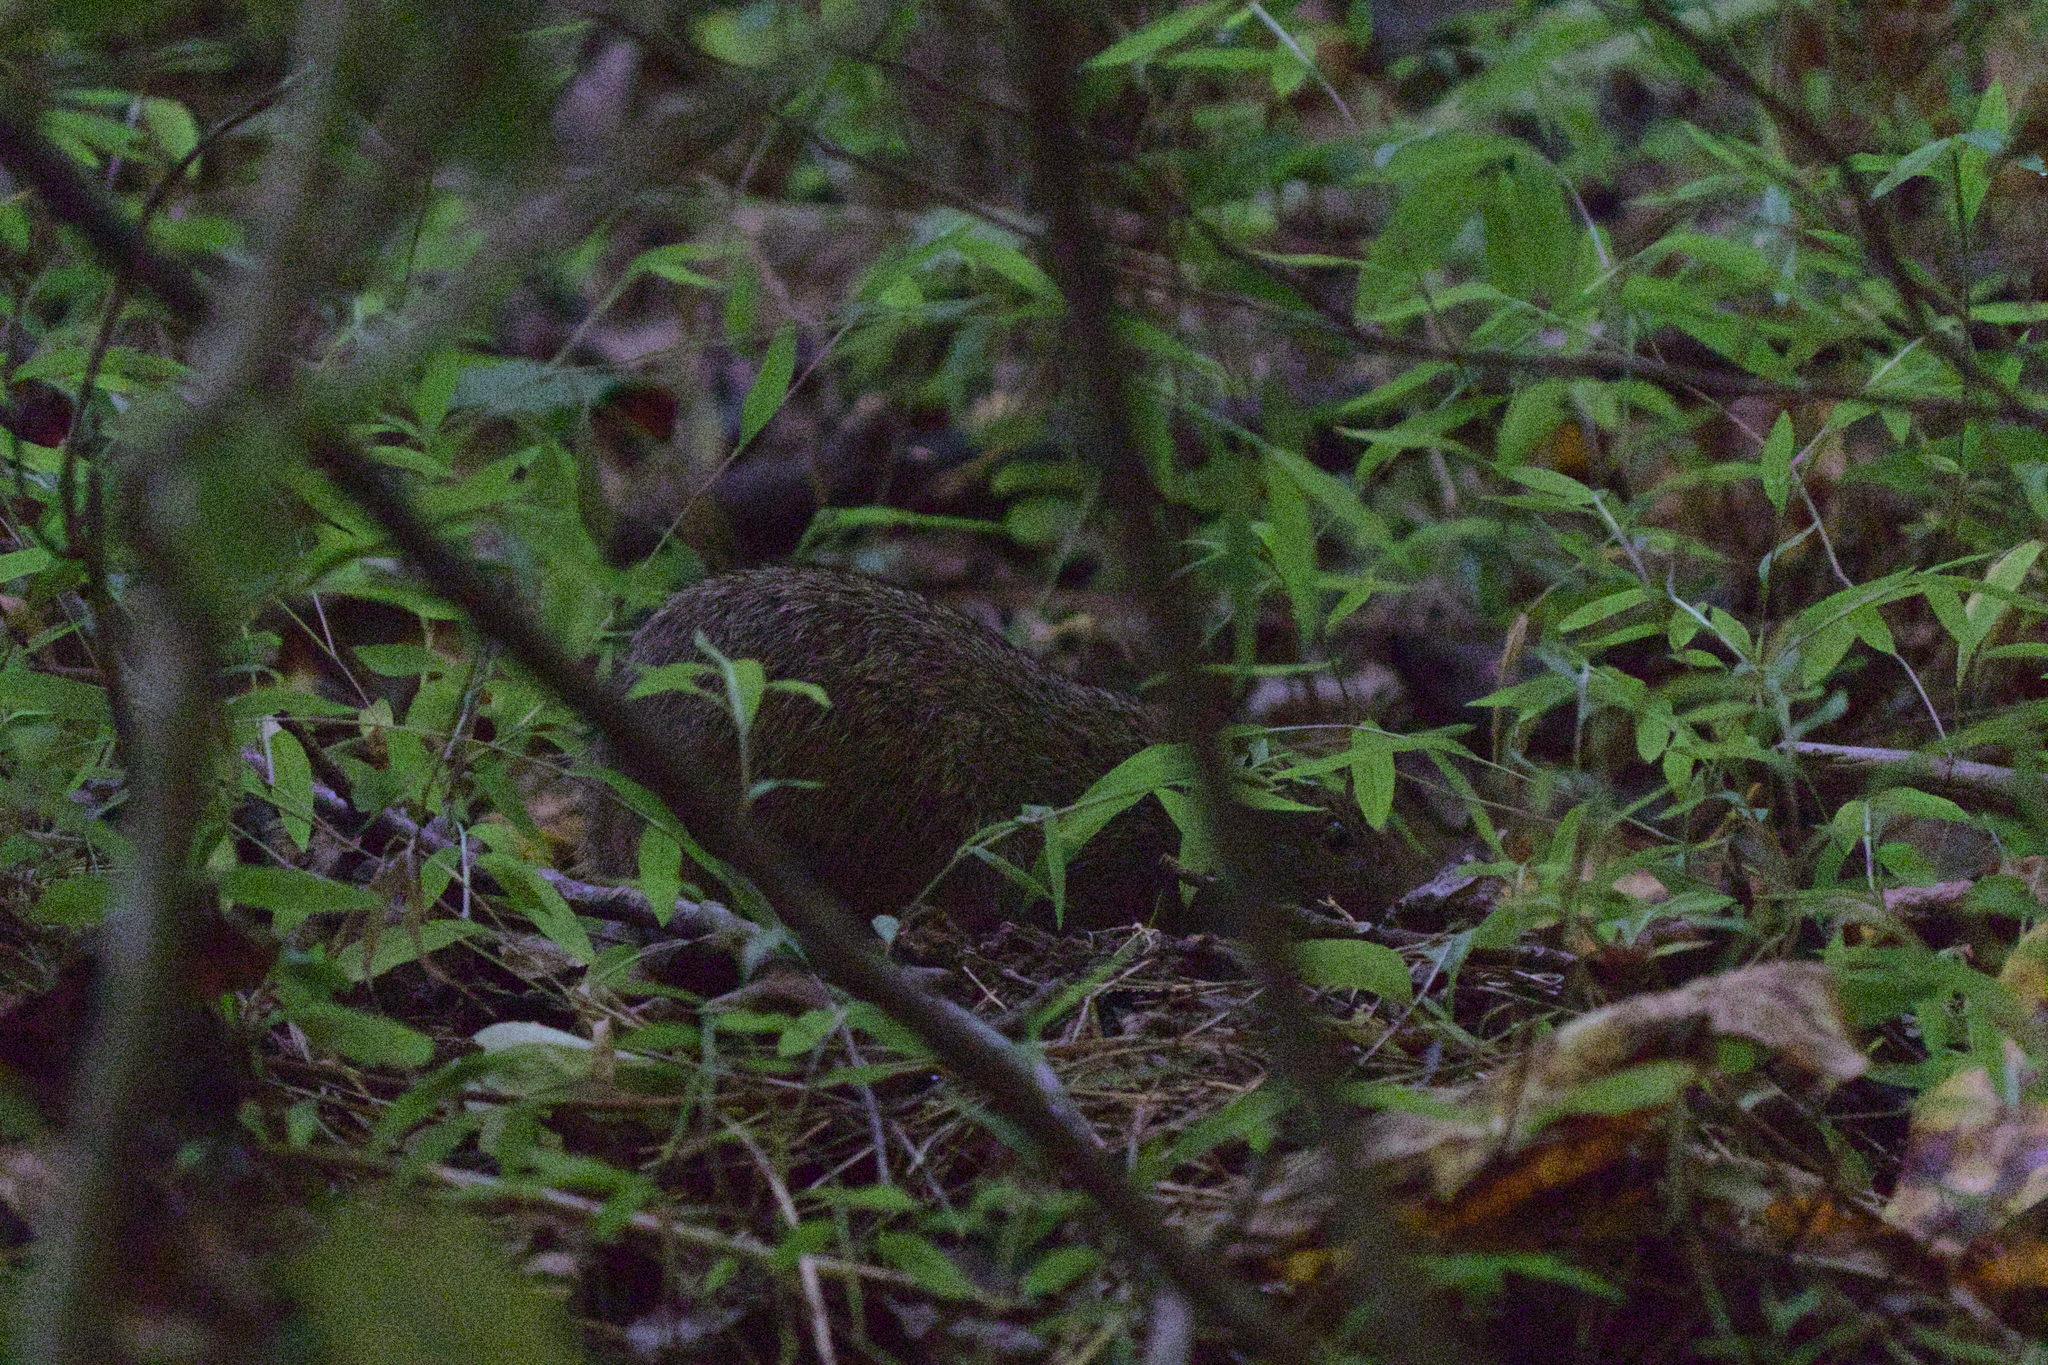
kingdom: Animalia
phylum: Chordata
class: Mammalia
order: Rodentia
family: Cricetidae
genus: Sigmodon
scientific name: Sigmodon hispidus
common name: Hispid cotton rat
